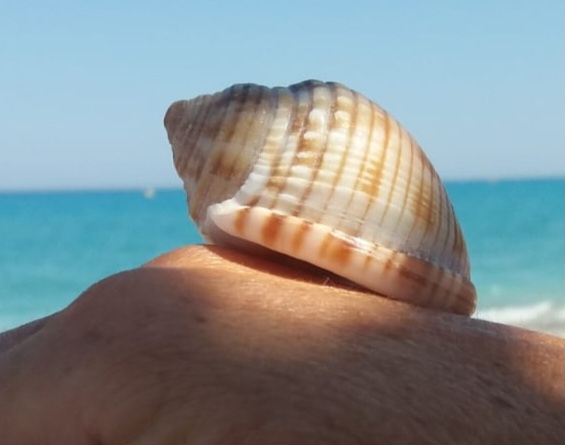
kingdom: Animalia
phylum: Mollusca
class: Gastropoda
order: Littorinimorpha
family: Cassidae
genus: Semicassis
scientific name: Semicassis undulata
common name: Mediterranean bonnet
